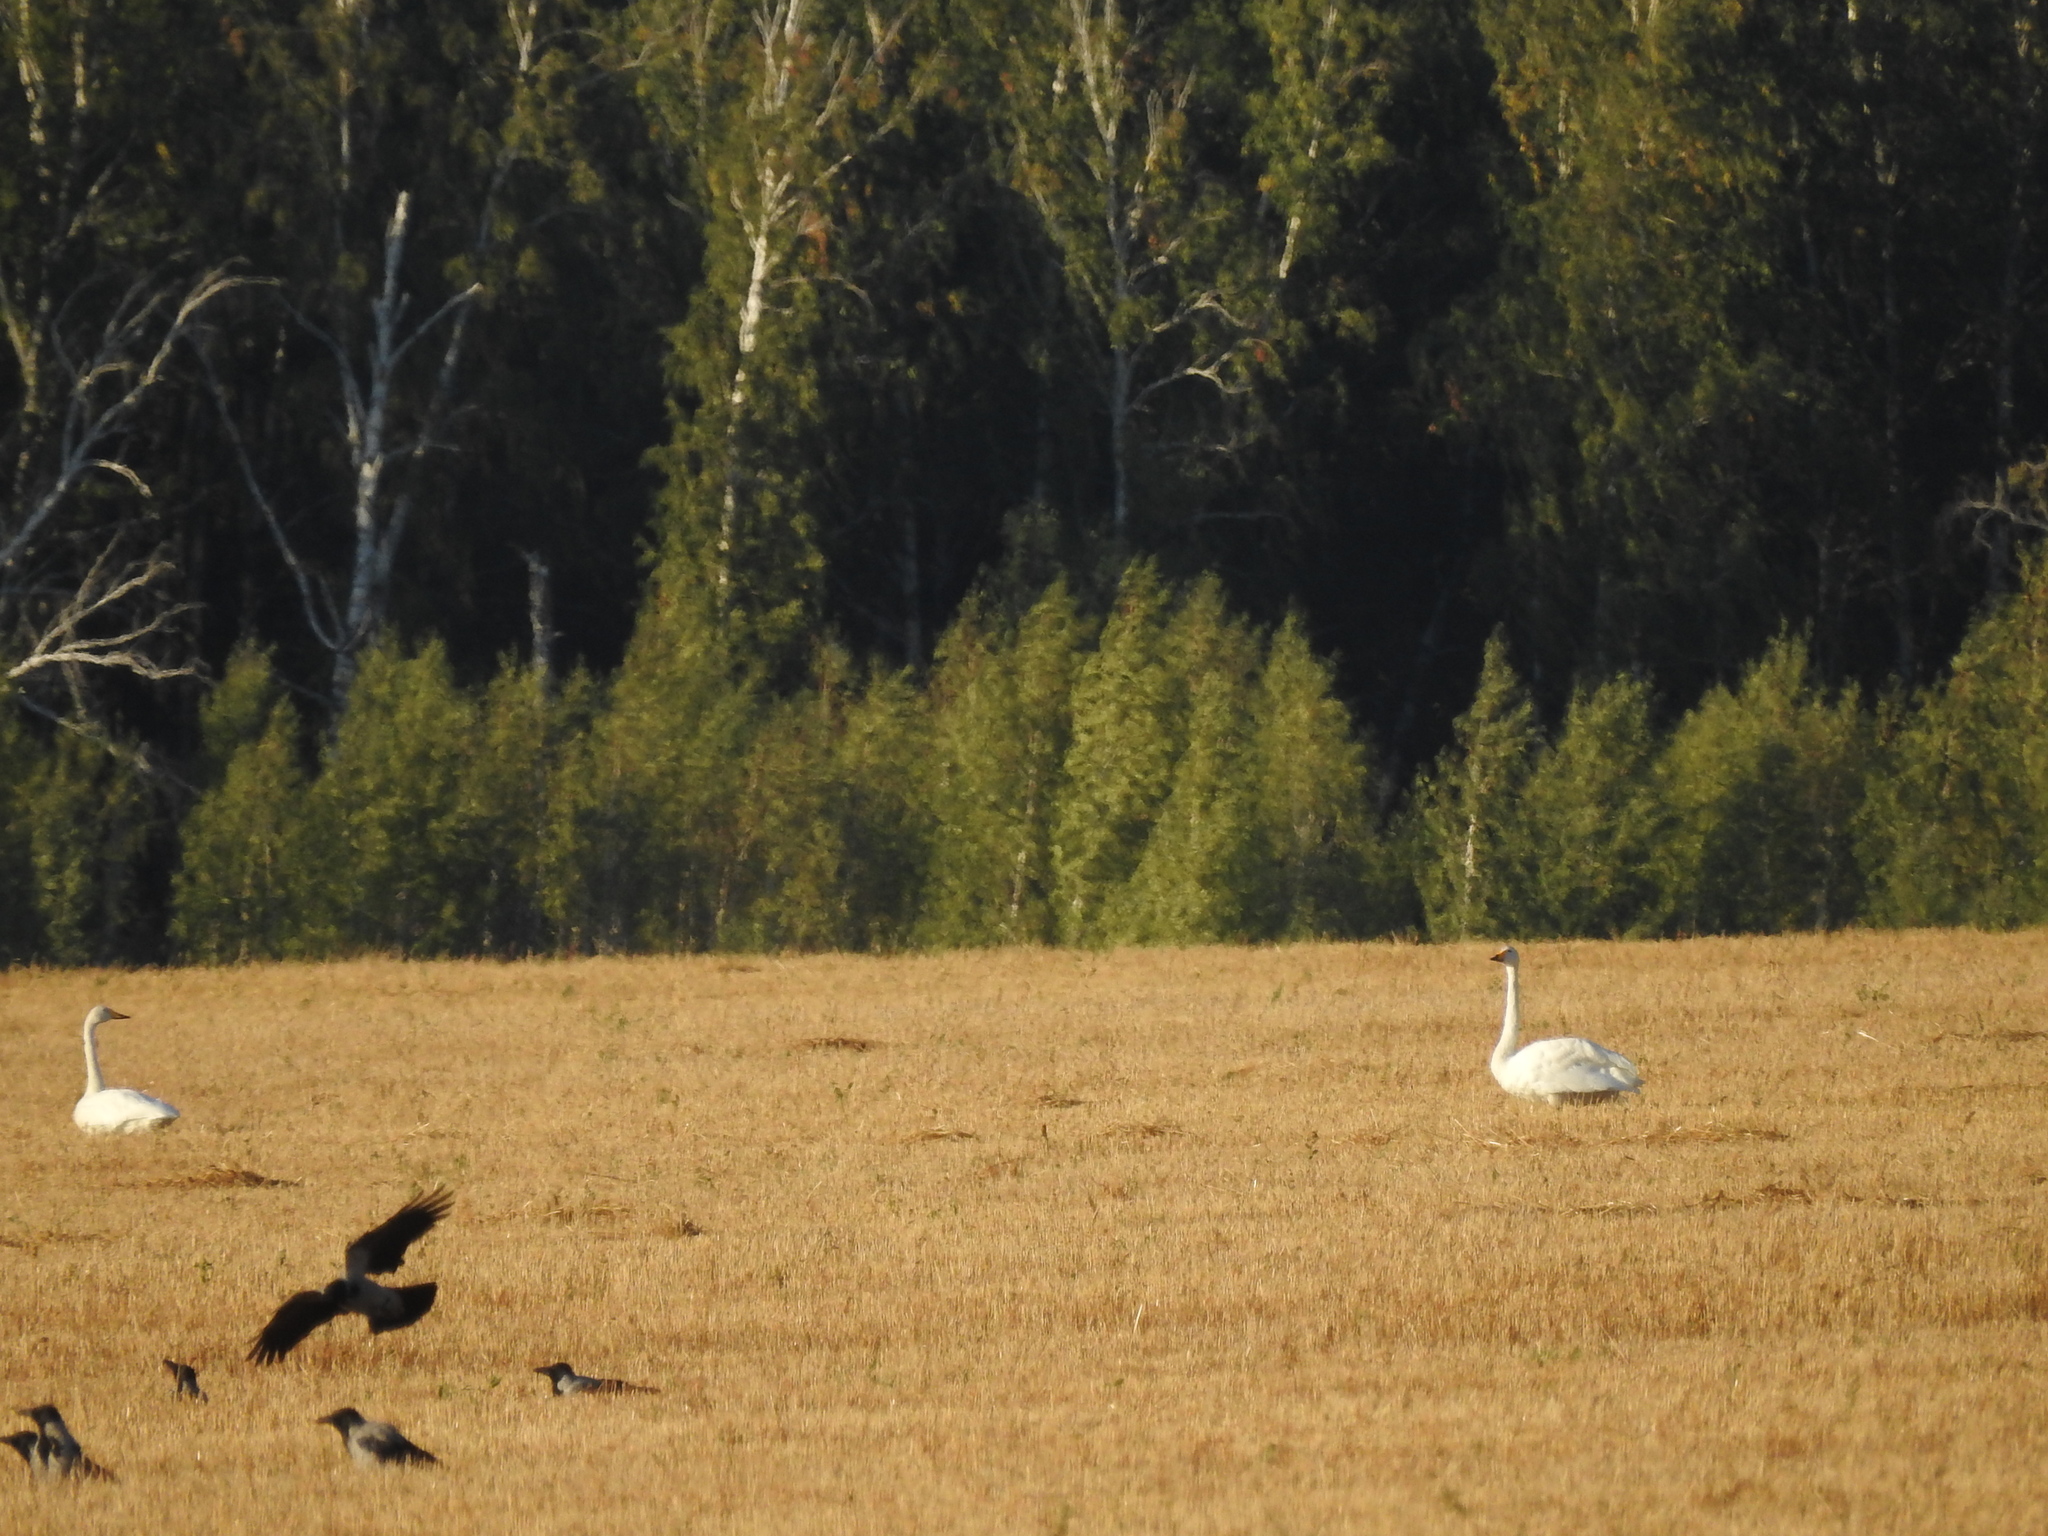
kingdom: Animalia
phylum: Chordata
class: Aves
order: Anseriformes
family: Anatidae
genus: Cygnus
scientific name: Cygnus cygnus
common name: Whooper swan
